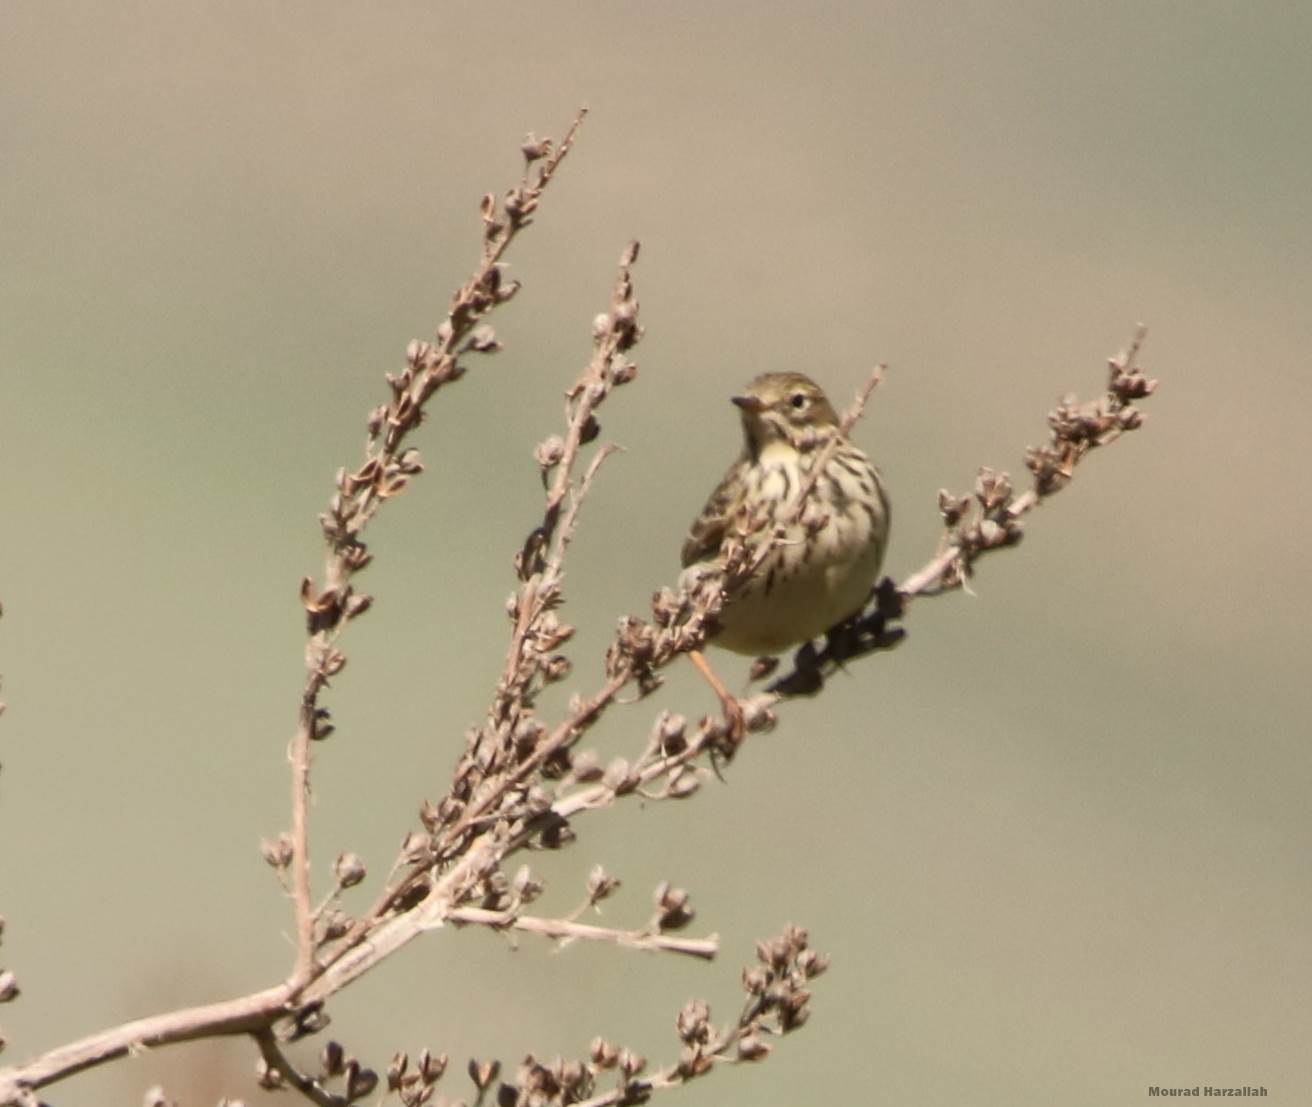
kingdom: Animalia
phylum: Chordata
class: Aves
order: Passeriformes
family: Motacillidae
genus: Anthus
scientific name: Anthus pratensis
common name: Meadow pipit
